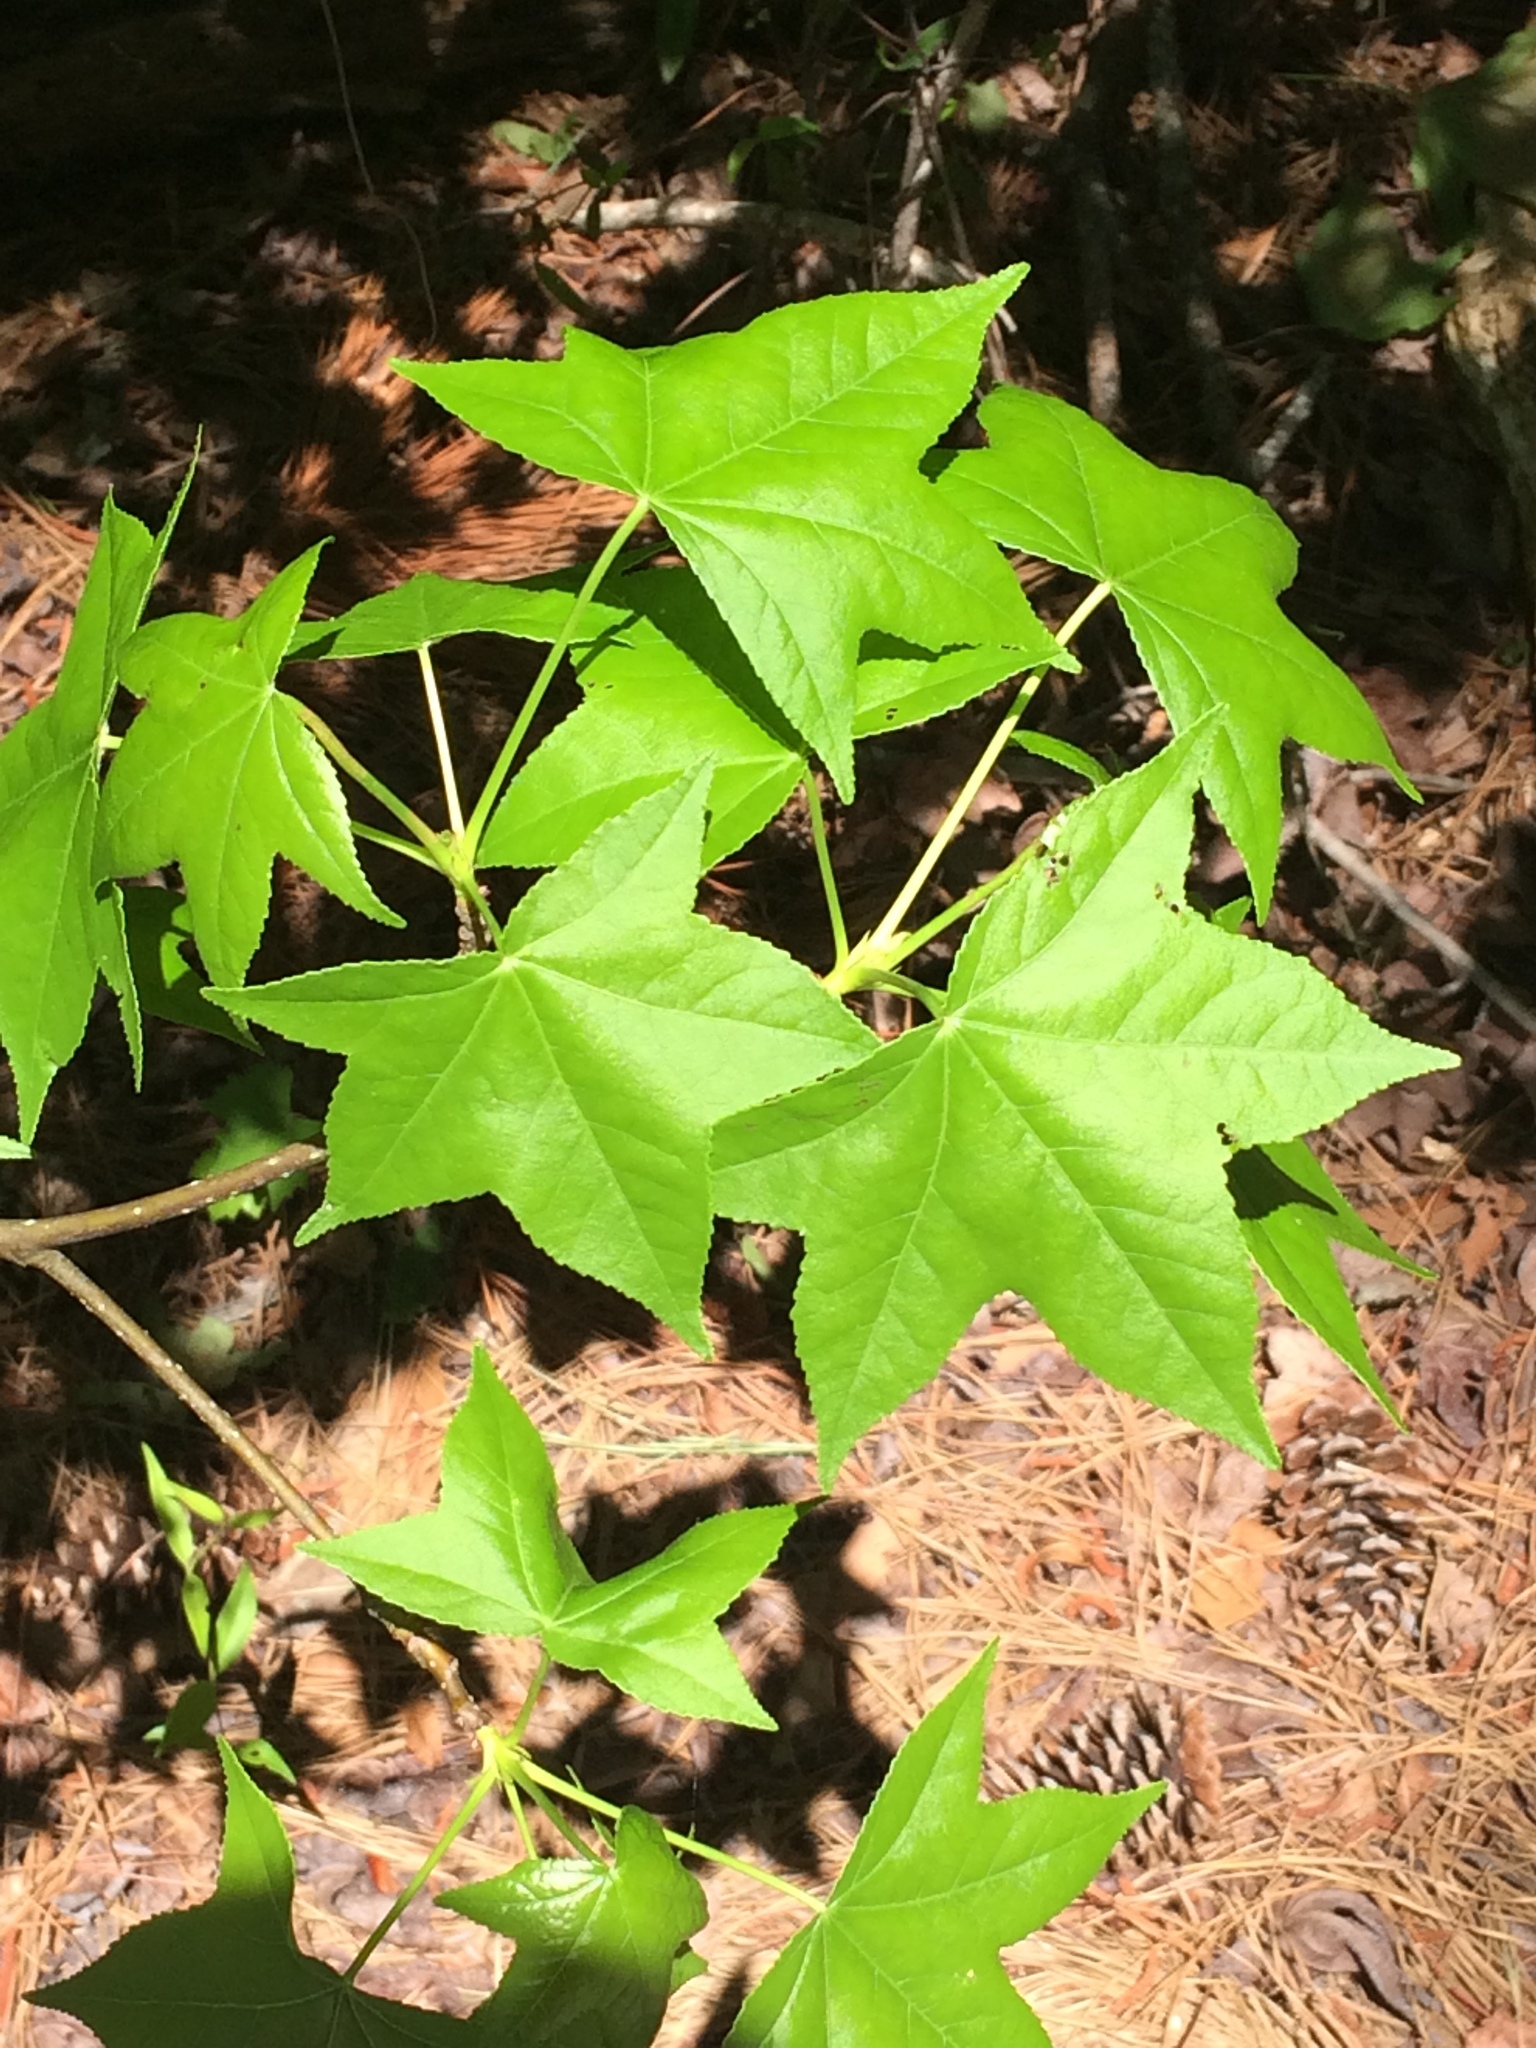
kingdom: Plantae
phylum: Tracheophyta
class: Magnoliopsida
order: Saxifragales
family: Altingiaceae
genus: Liquidambar
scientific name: Liquidambar styraciflua
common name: Sweet gum
